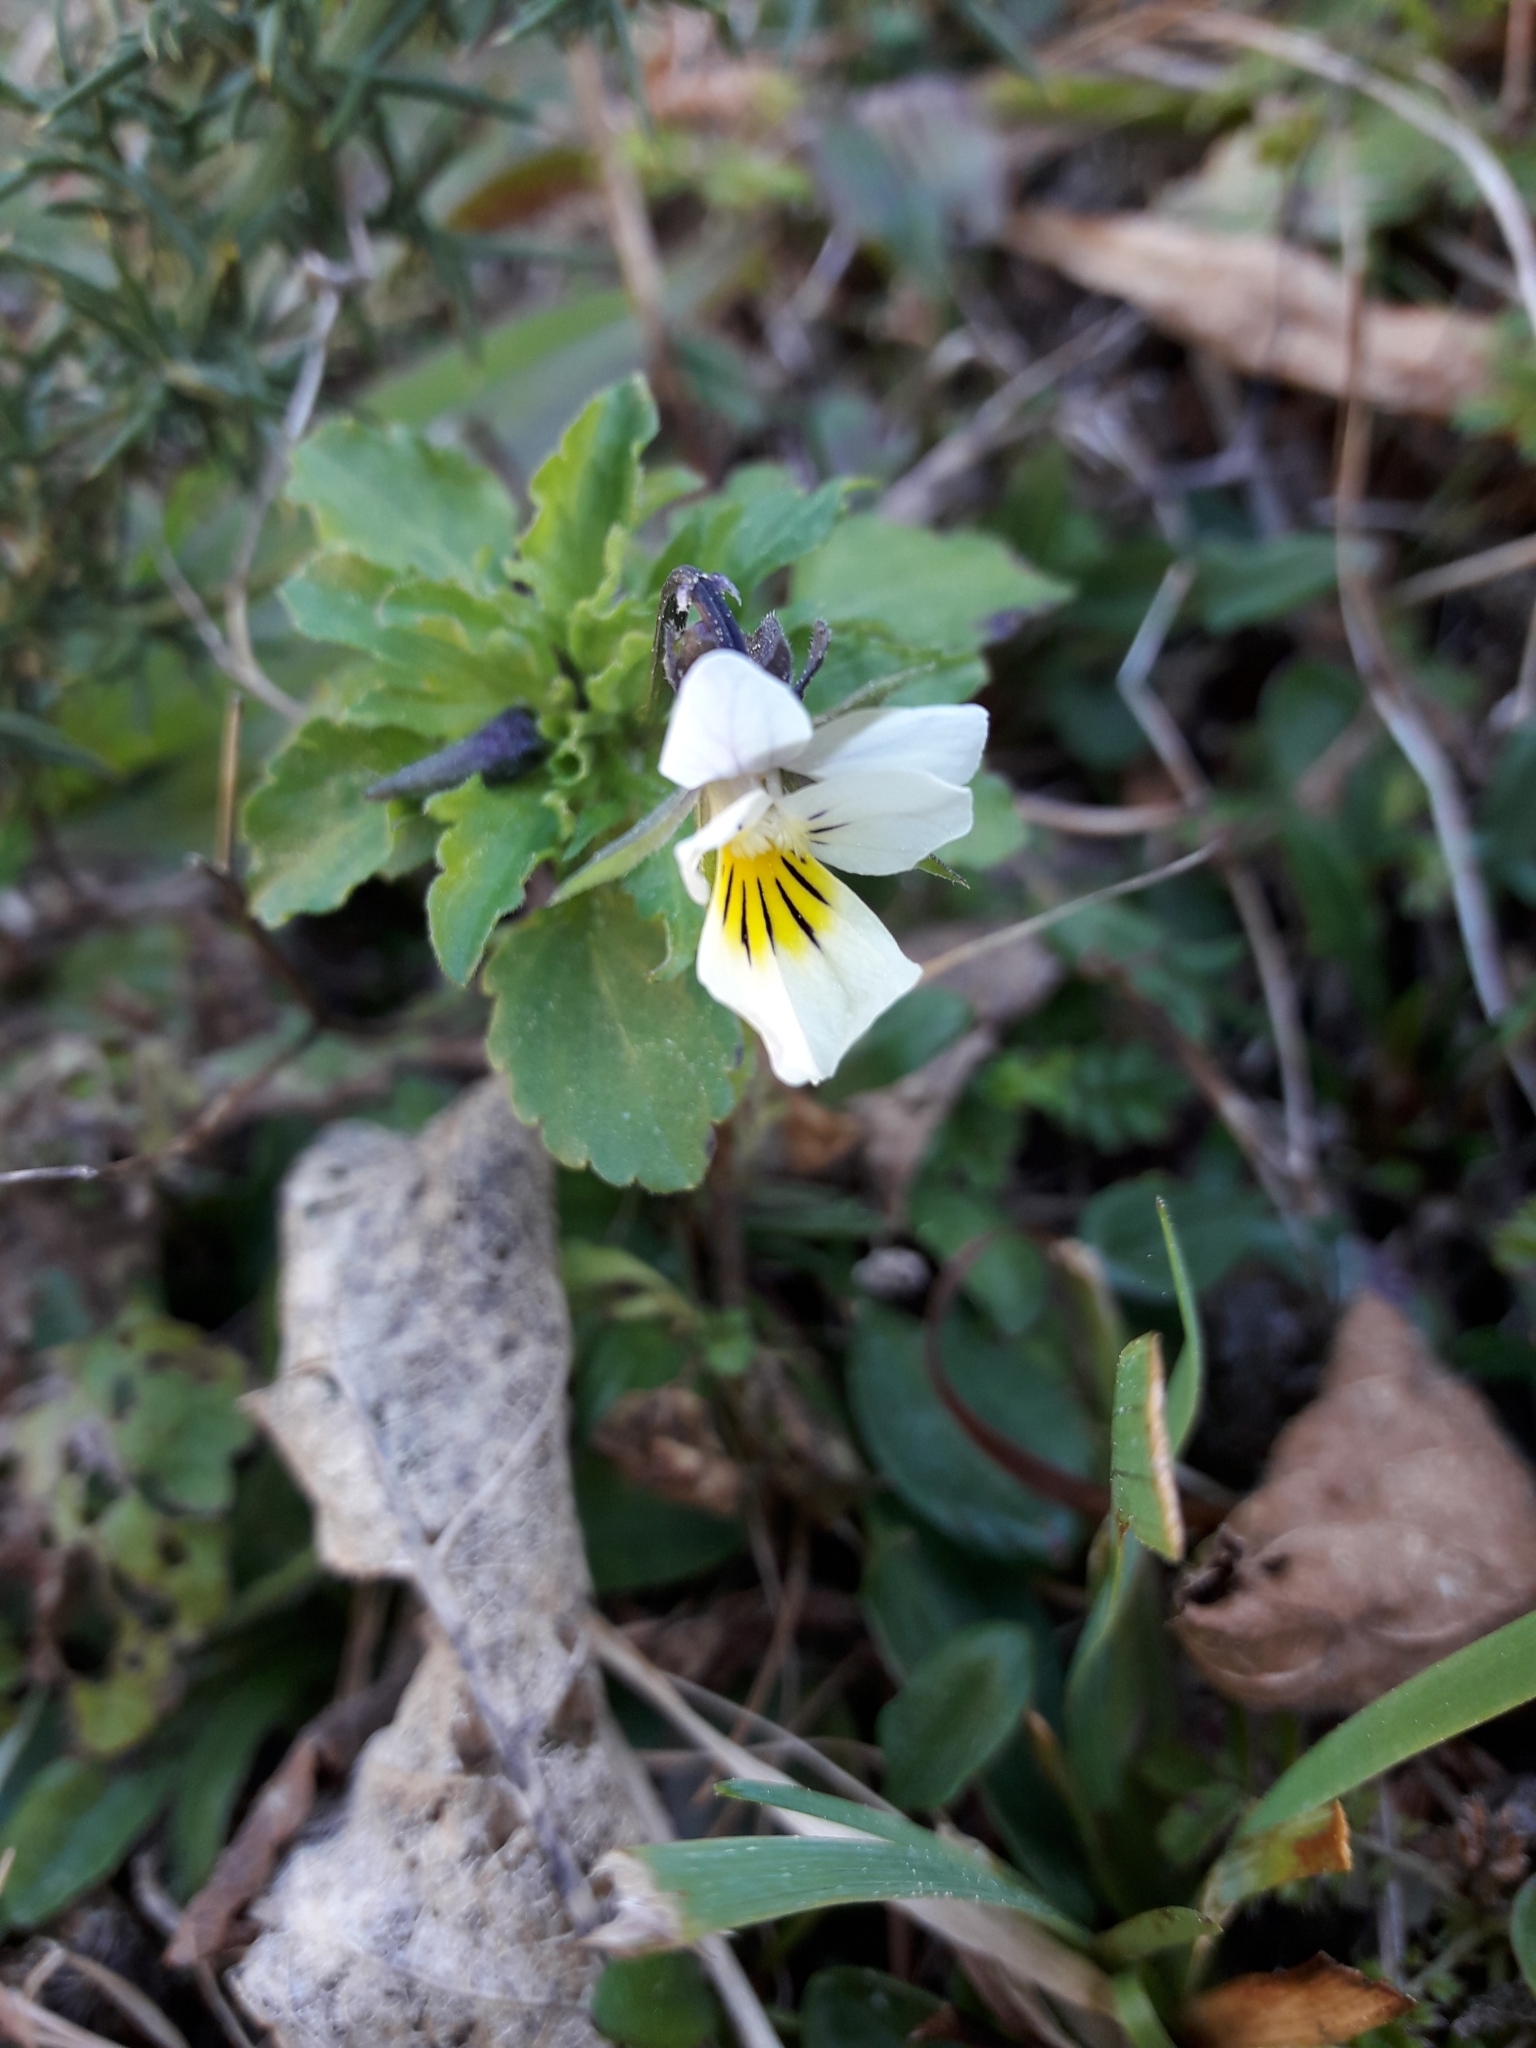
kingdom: Plantae
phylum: Tracheophyta
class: Magnoliopsida
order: Malpighiales
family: Violaceae
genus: Viola
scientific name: Viola arvensis
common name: Field pansy
